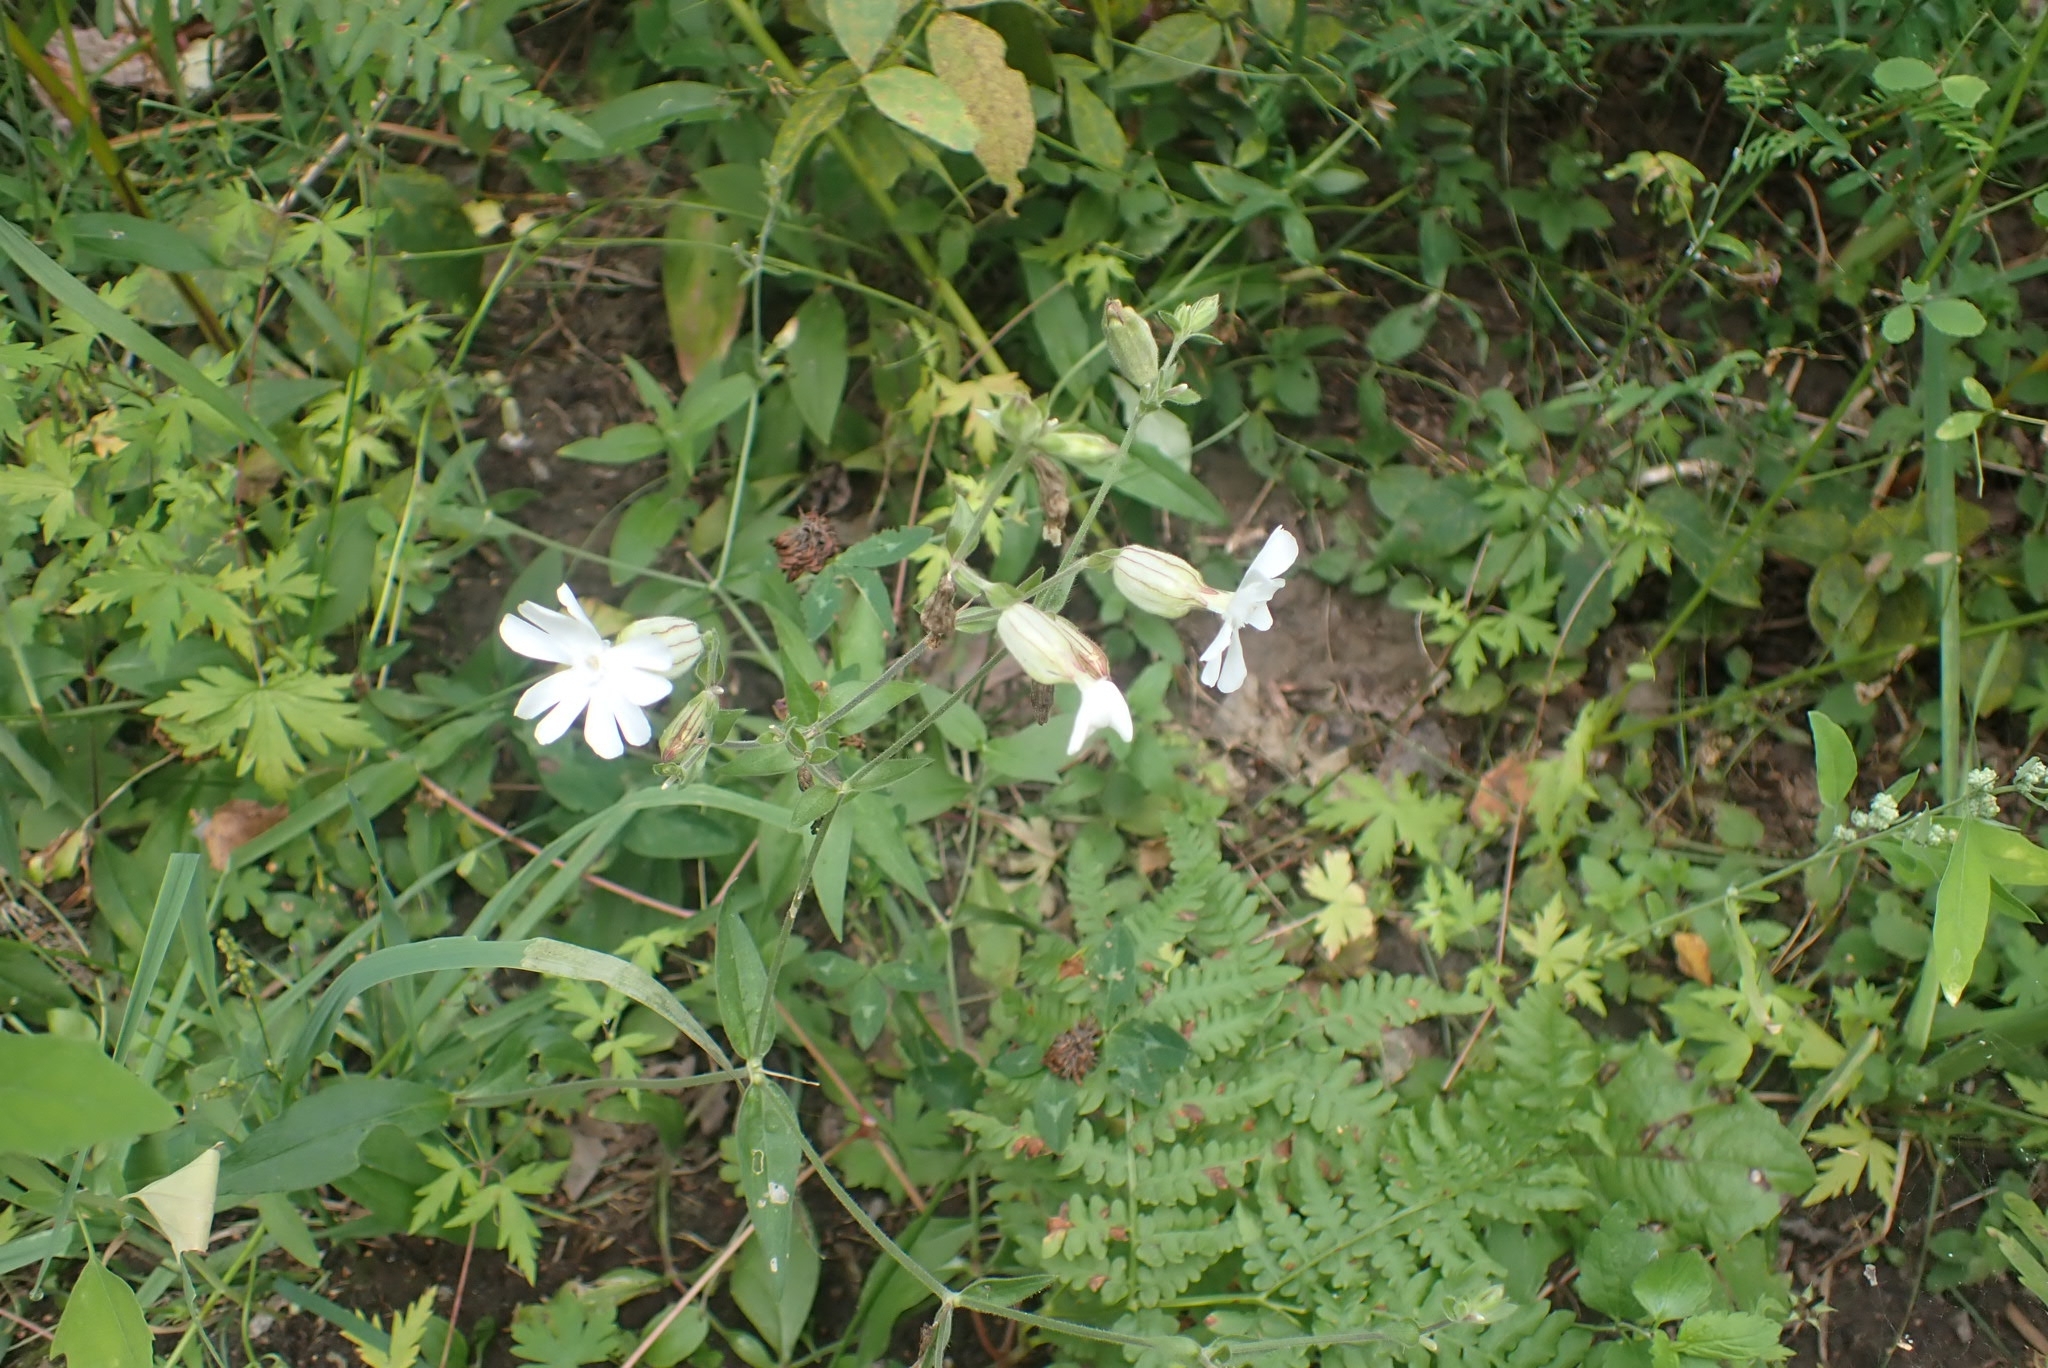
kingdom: Plantae
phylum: Tracheophyta
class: Magnoliopsida
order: Caryophyllales
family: Caryophyllaceae
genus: Silene
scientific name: Silene latifolia
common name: White campion
